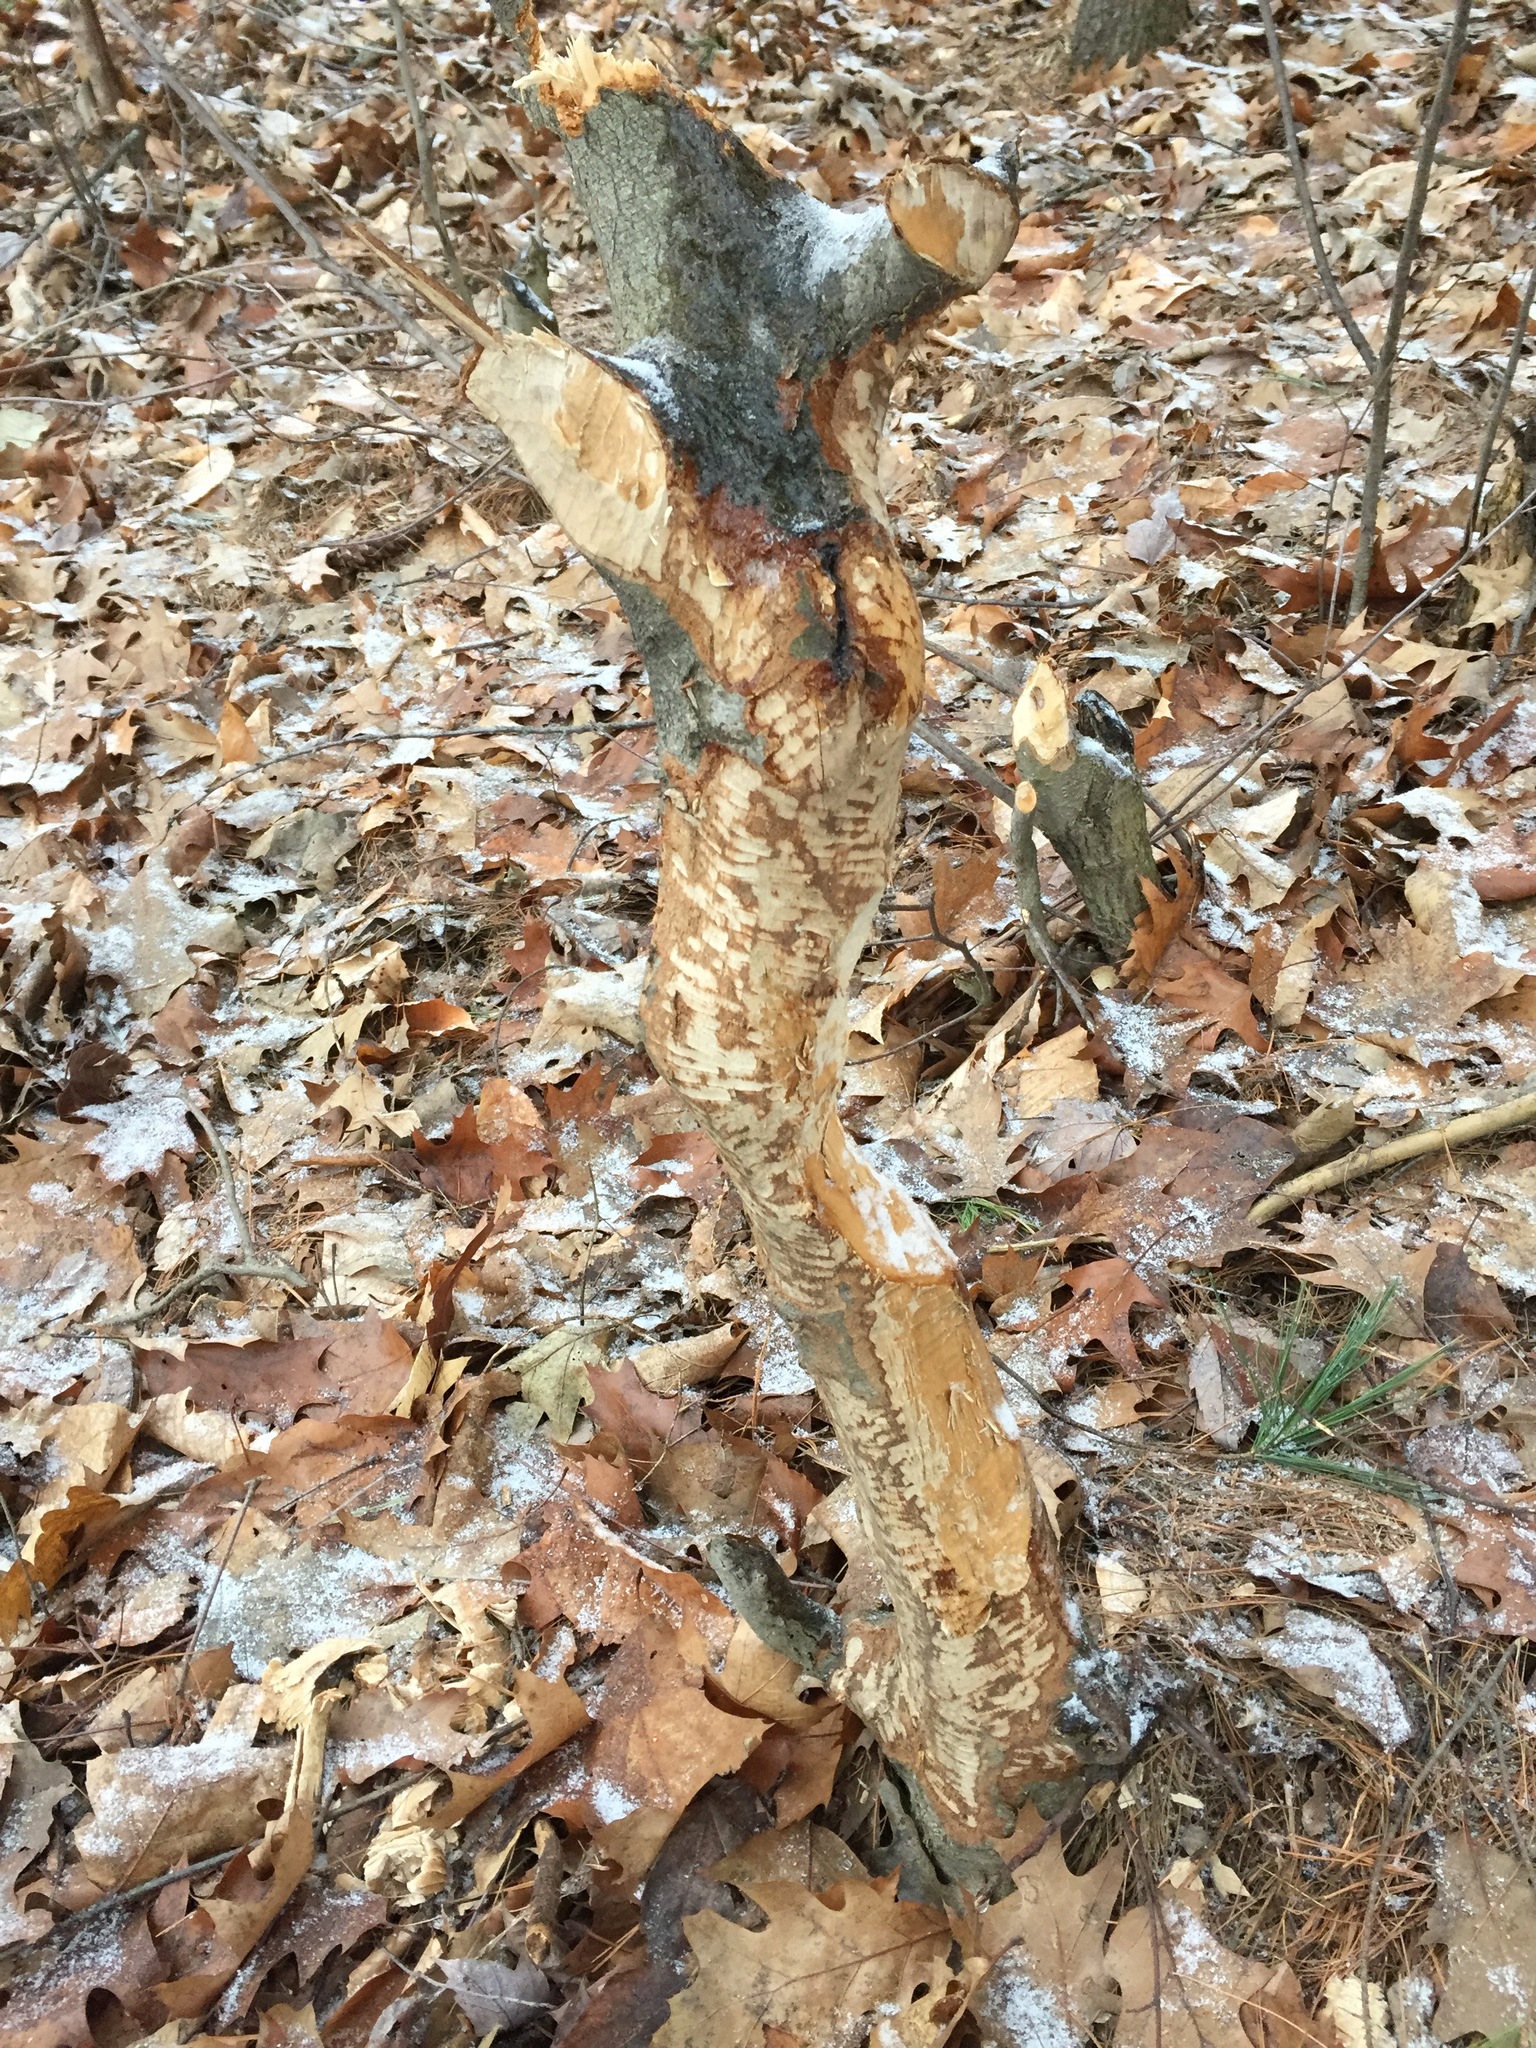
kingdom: Animalia
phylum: Chordata
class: Mammalia
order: Rodentia
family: Castoridae
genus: Castor
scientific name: Castor canadensis
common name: American beaver
